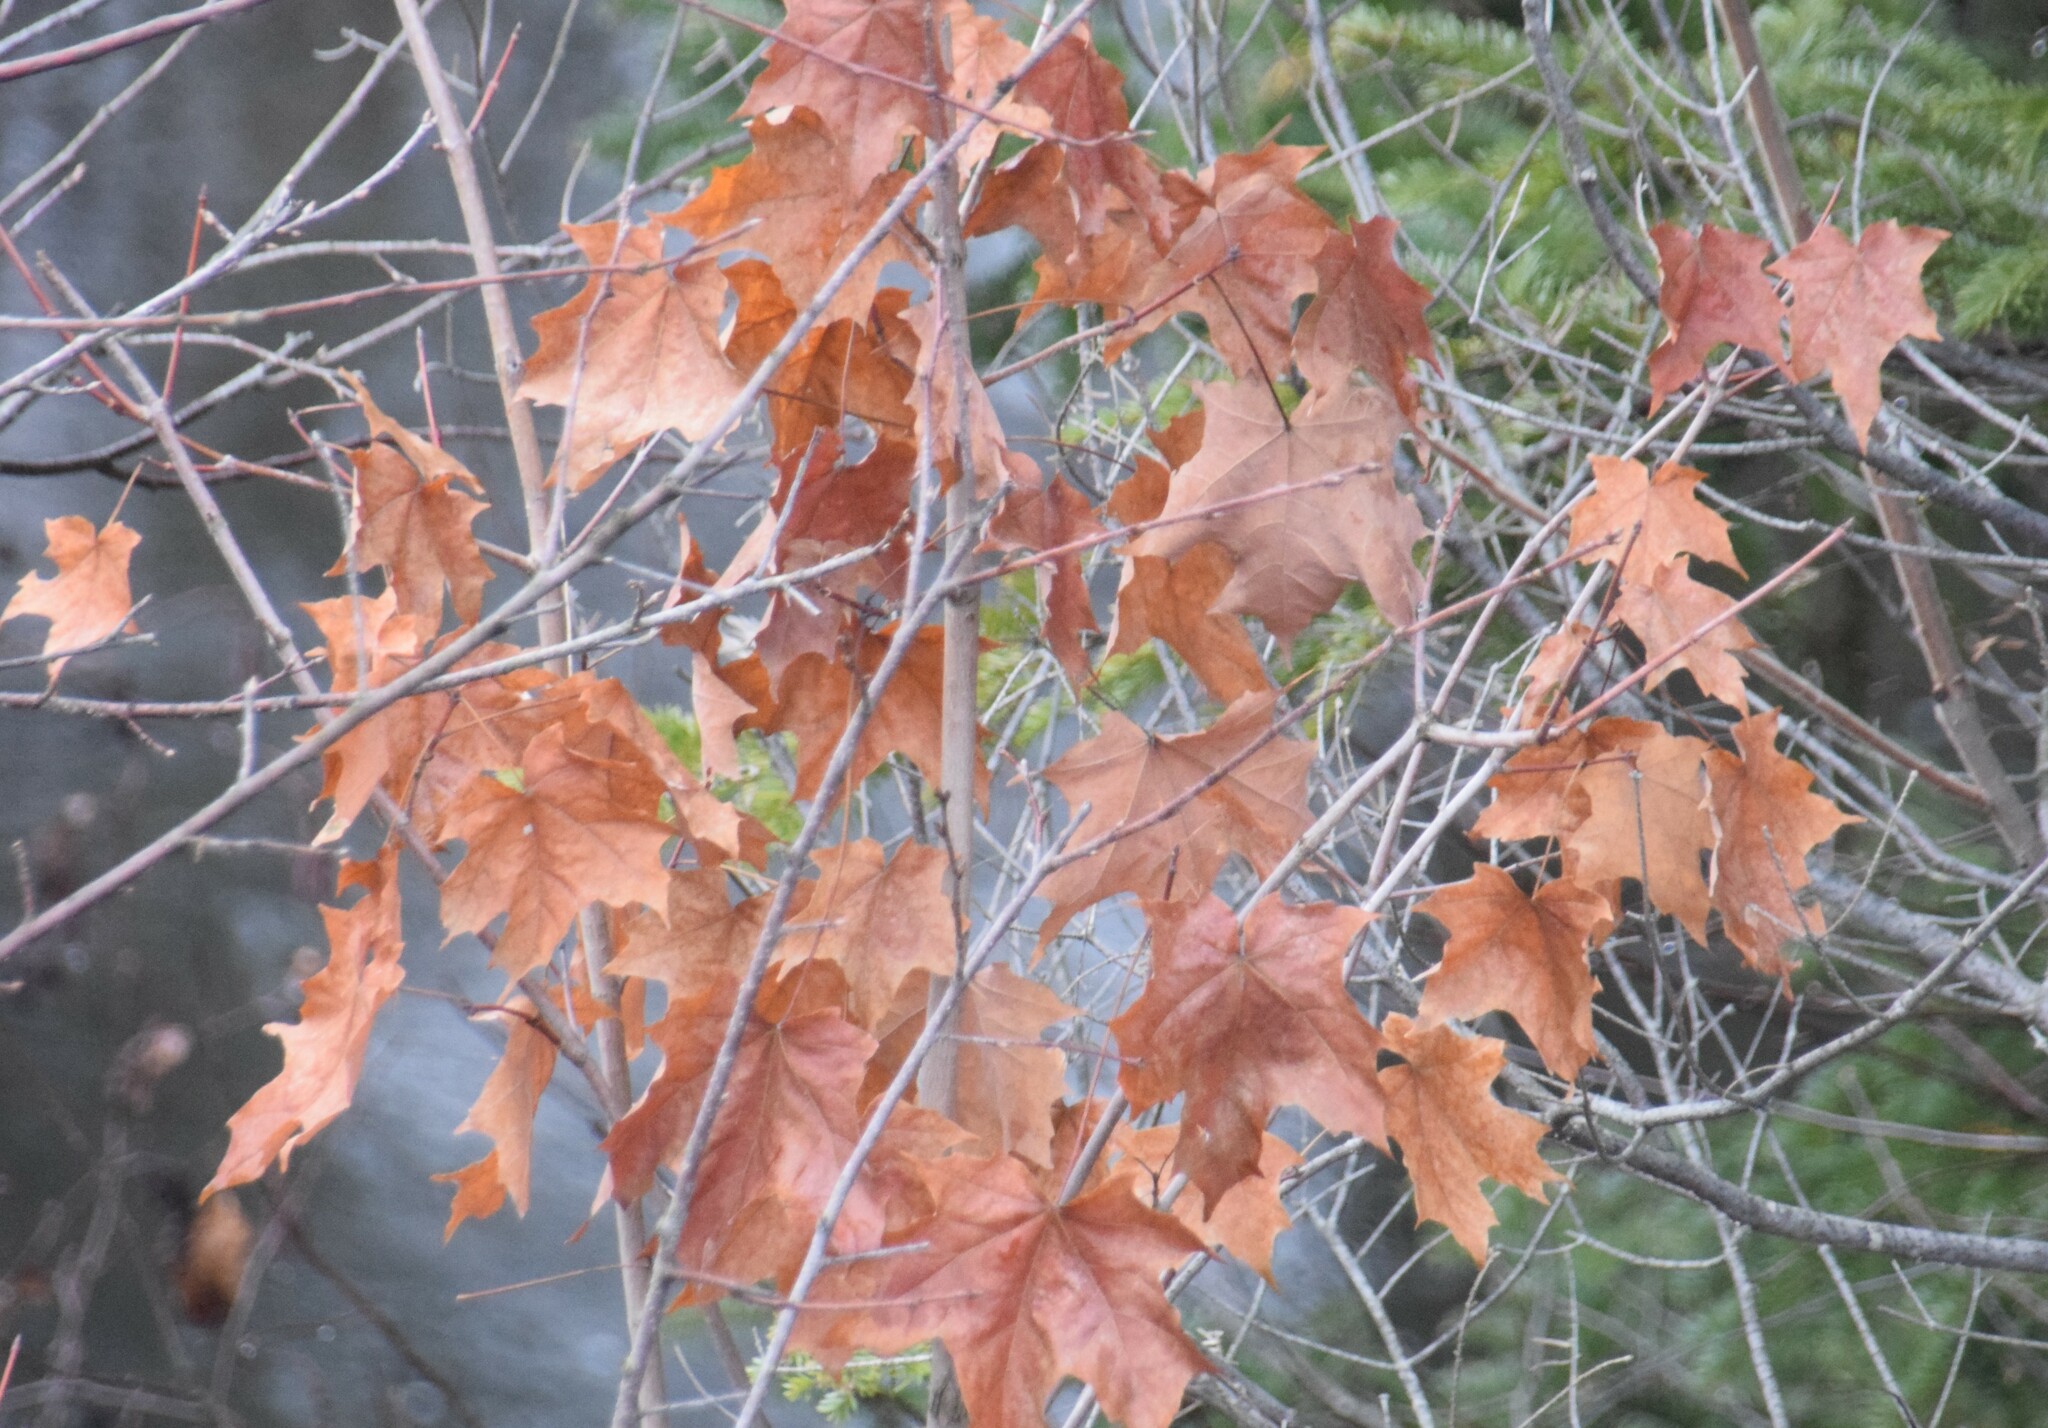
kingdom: Plantae
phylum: Tracheophyta
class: Magnoliopsida
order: Sapindales
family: Sapindaceae
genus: Acer
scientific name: Acer saccharum
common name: Sugar maple
